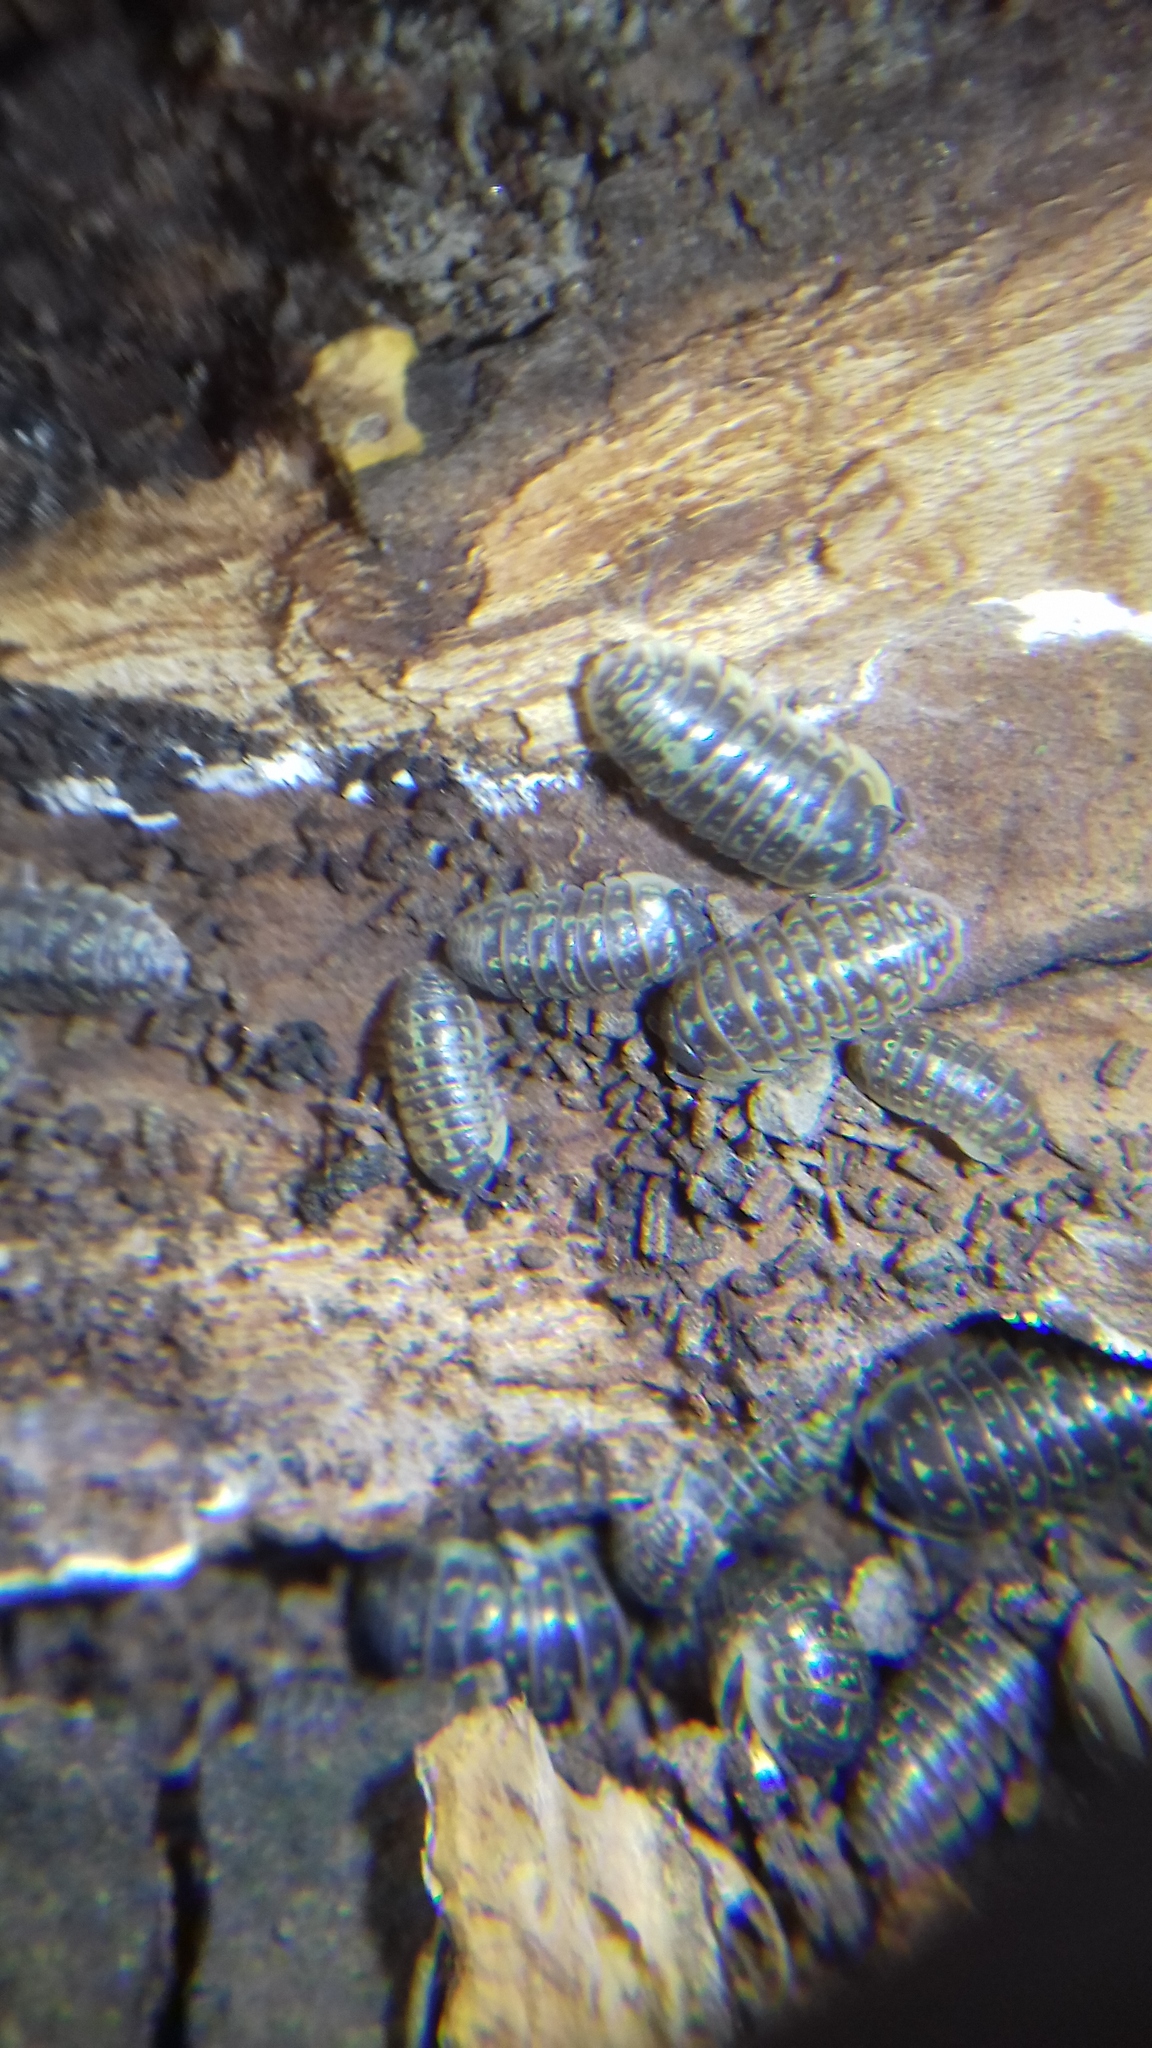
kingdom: Animalia
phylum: Arthropoda
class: Malacostraca
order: Isopoda
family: Armadillidiidae
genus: Armadillidium
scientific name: Armadillidium versicolor
